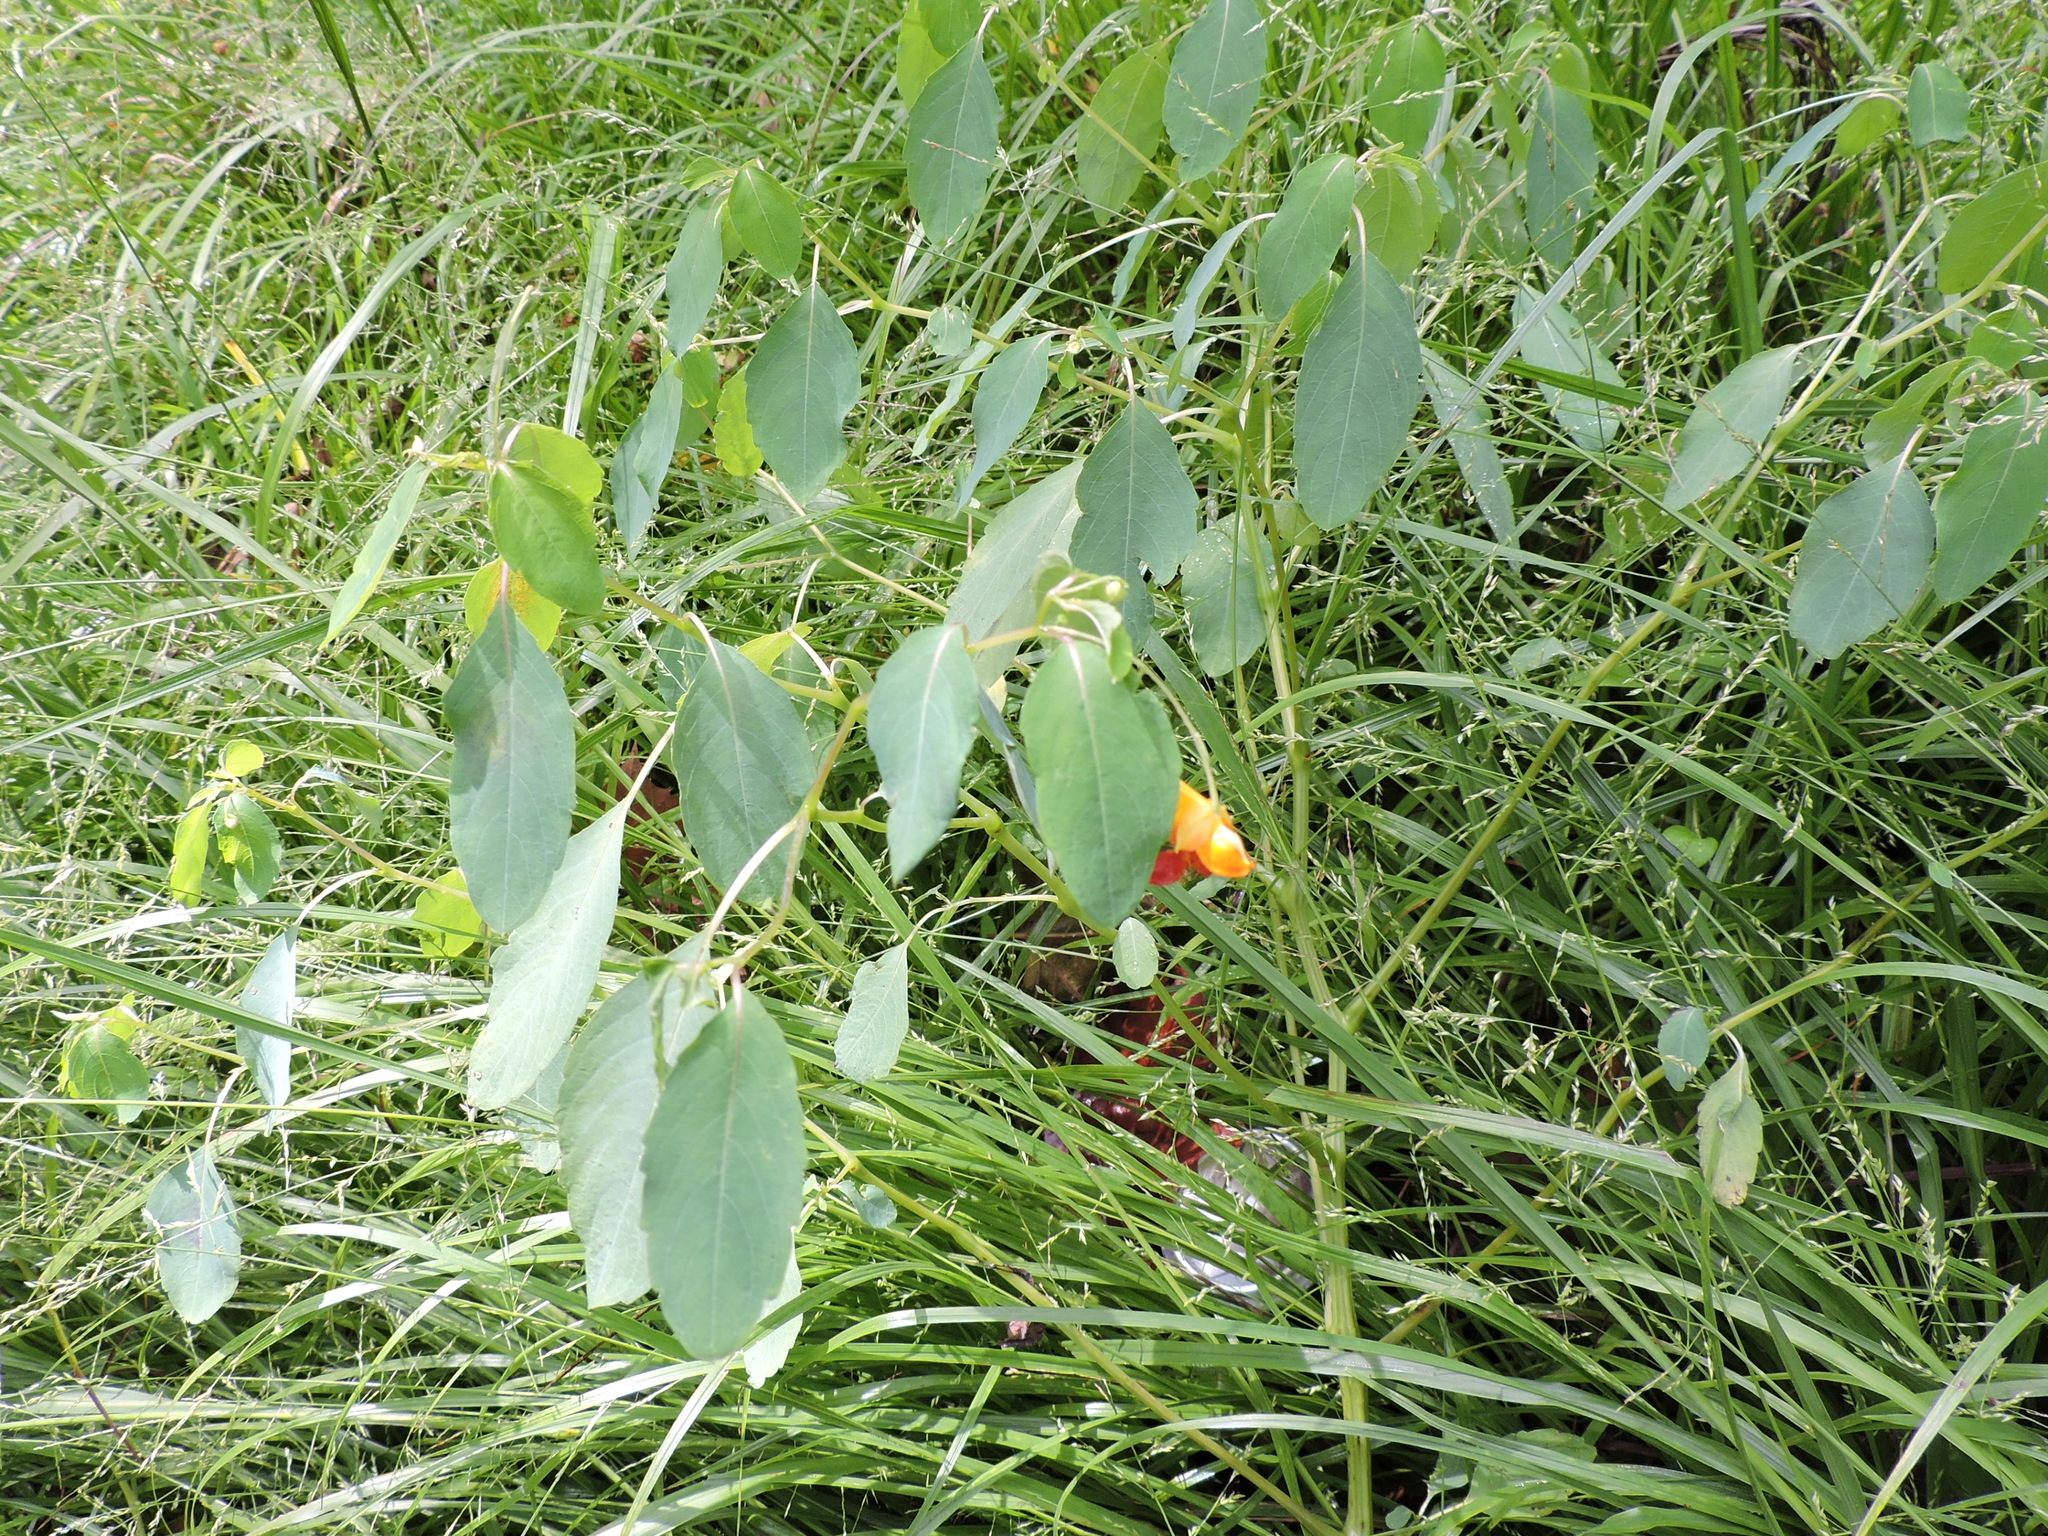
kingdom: Plantae
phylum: Tracheophyta
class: Magnoliopsida
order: Ericales
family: Balsaminaceae
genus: Impatiens
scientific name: Impatiens capensis
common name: Orange balsam
